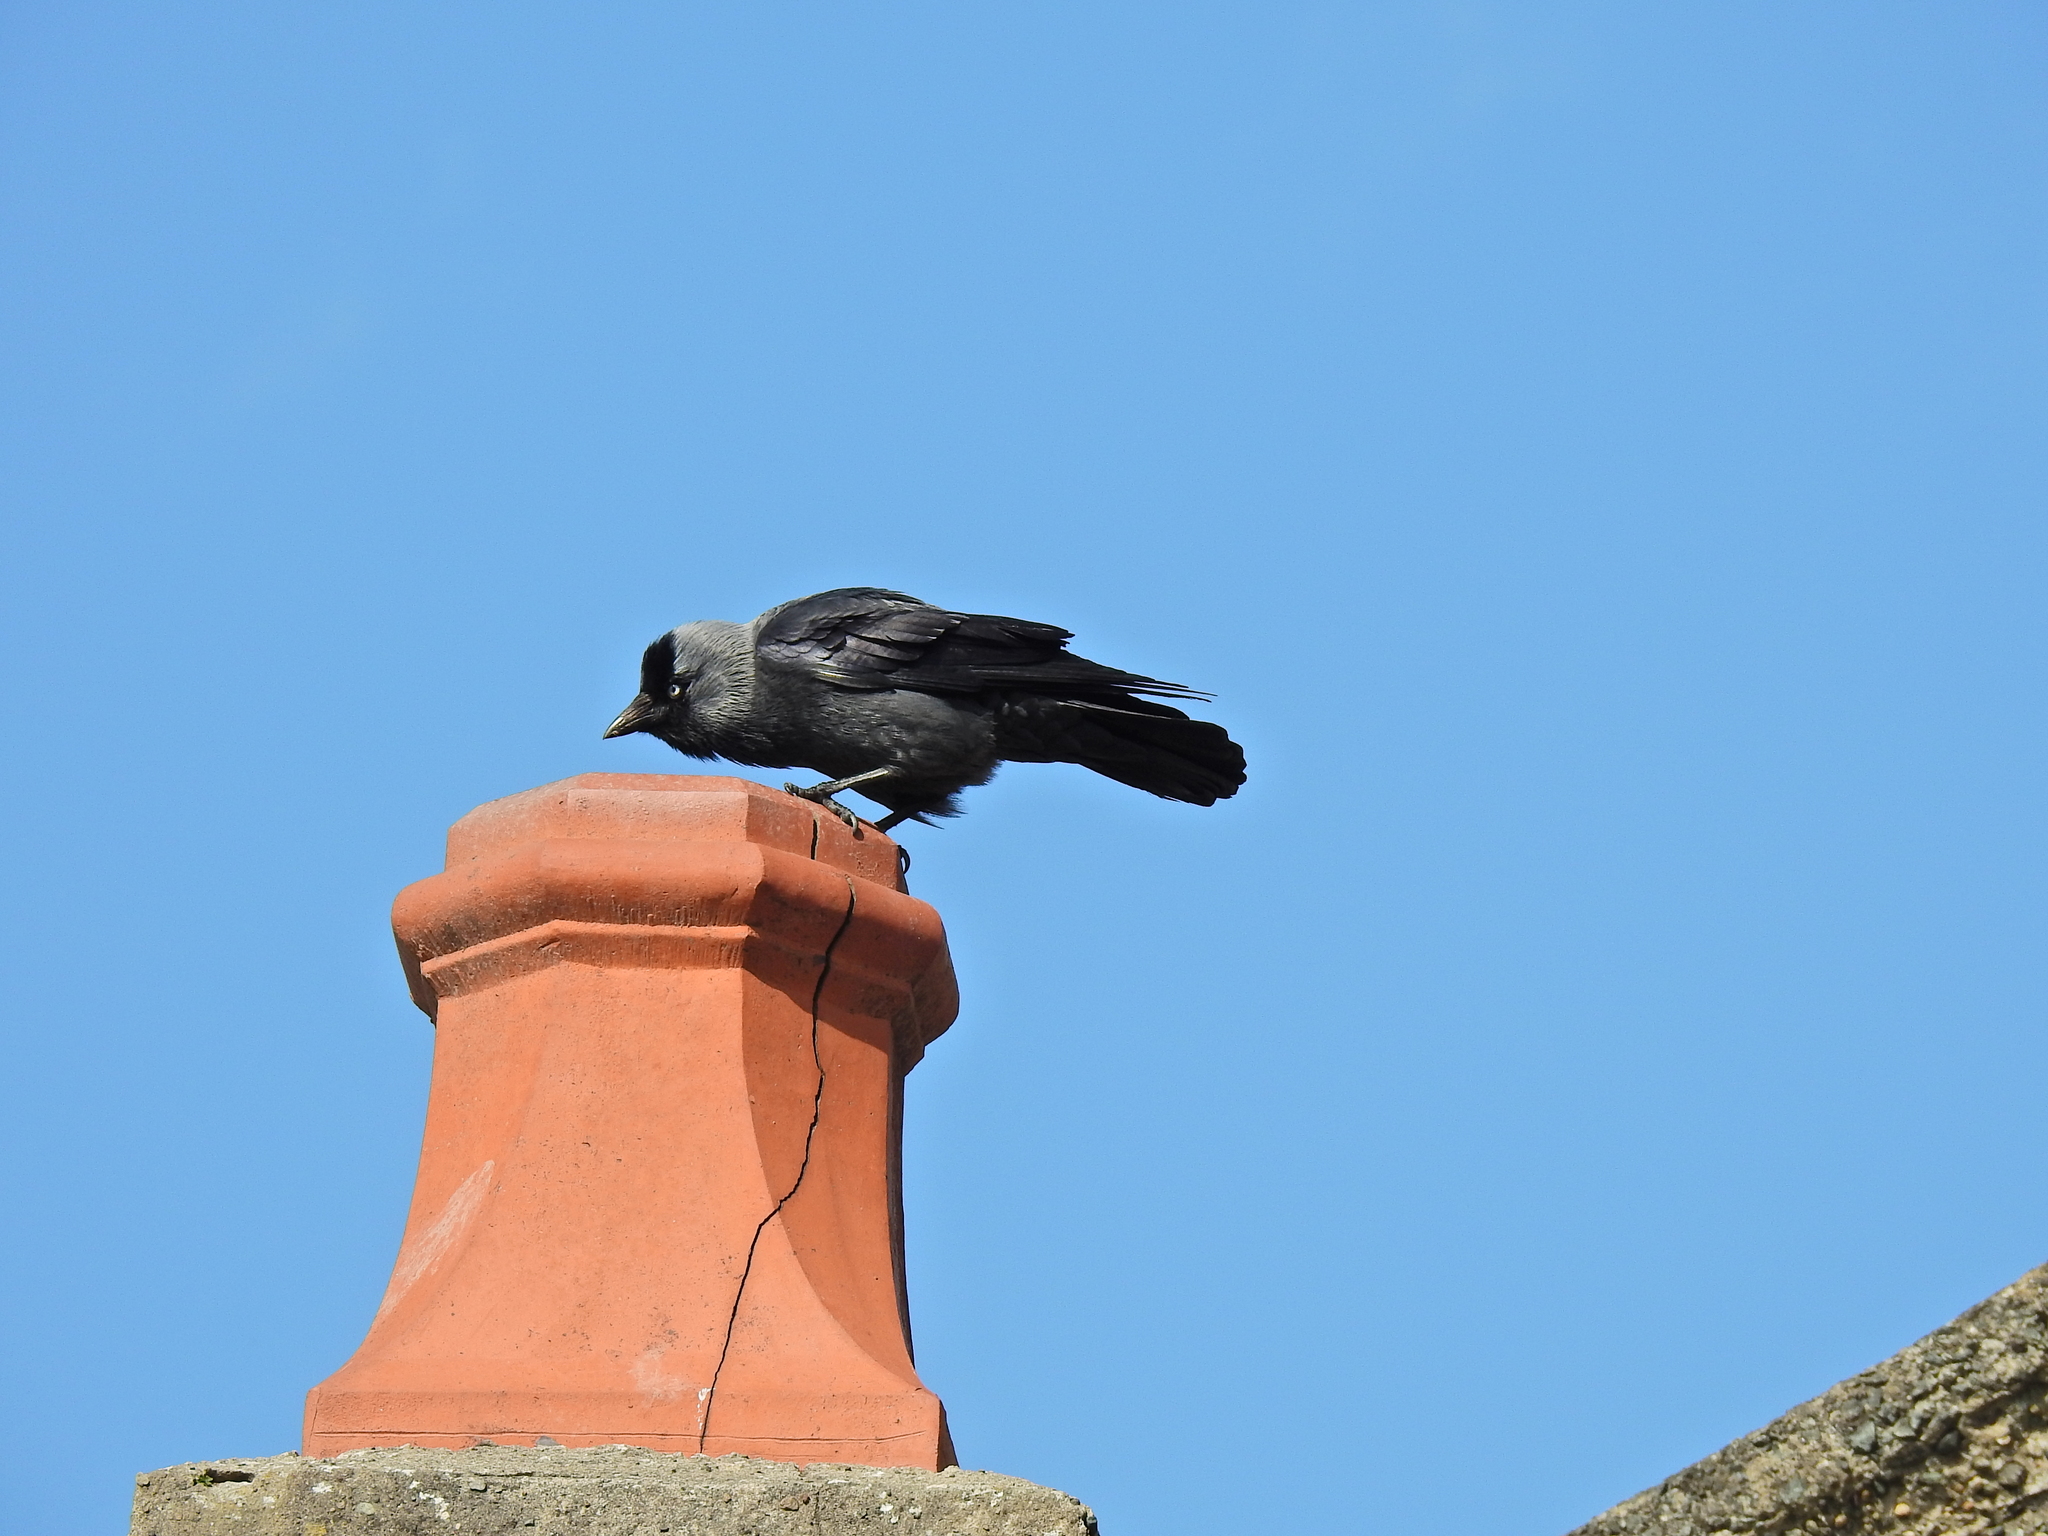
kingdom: Animalia
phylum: Chordata
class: Aves
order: Passeriformes
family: Corvidae
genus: Coloeus
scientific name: Coloeus monedula
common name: Western jackdaw
